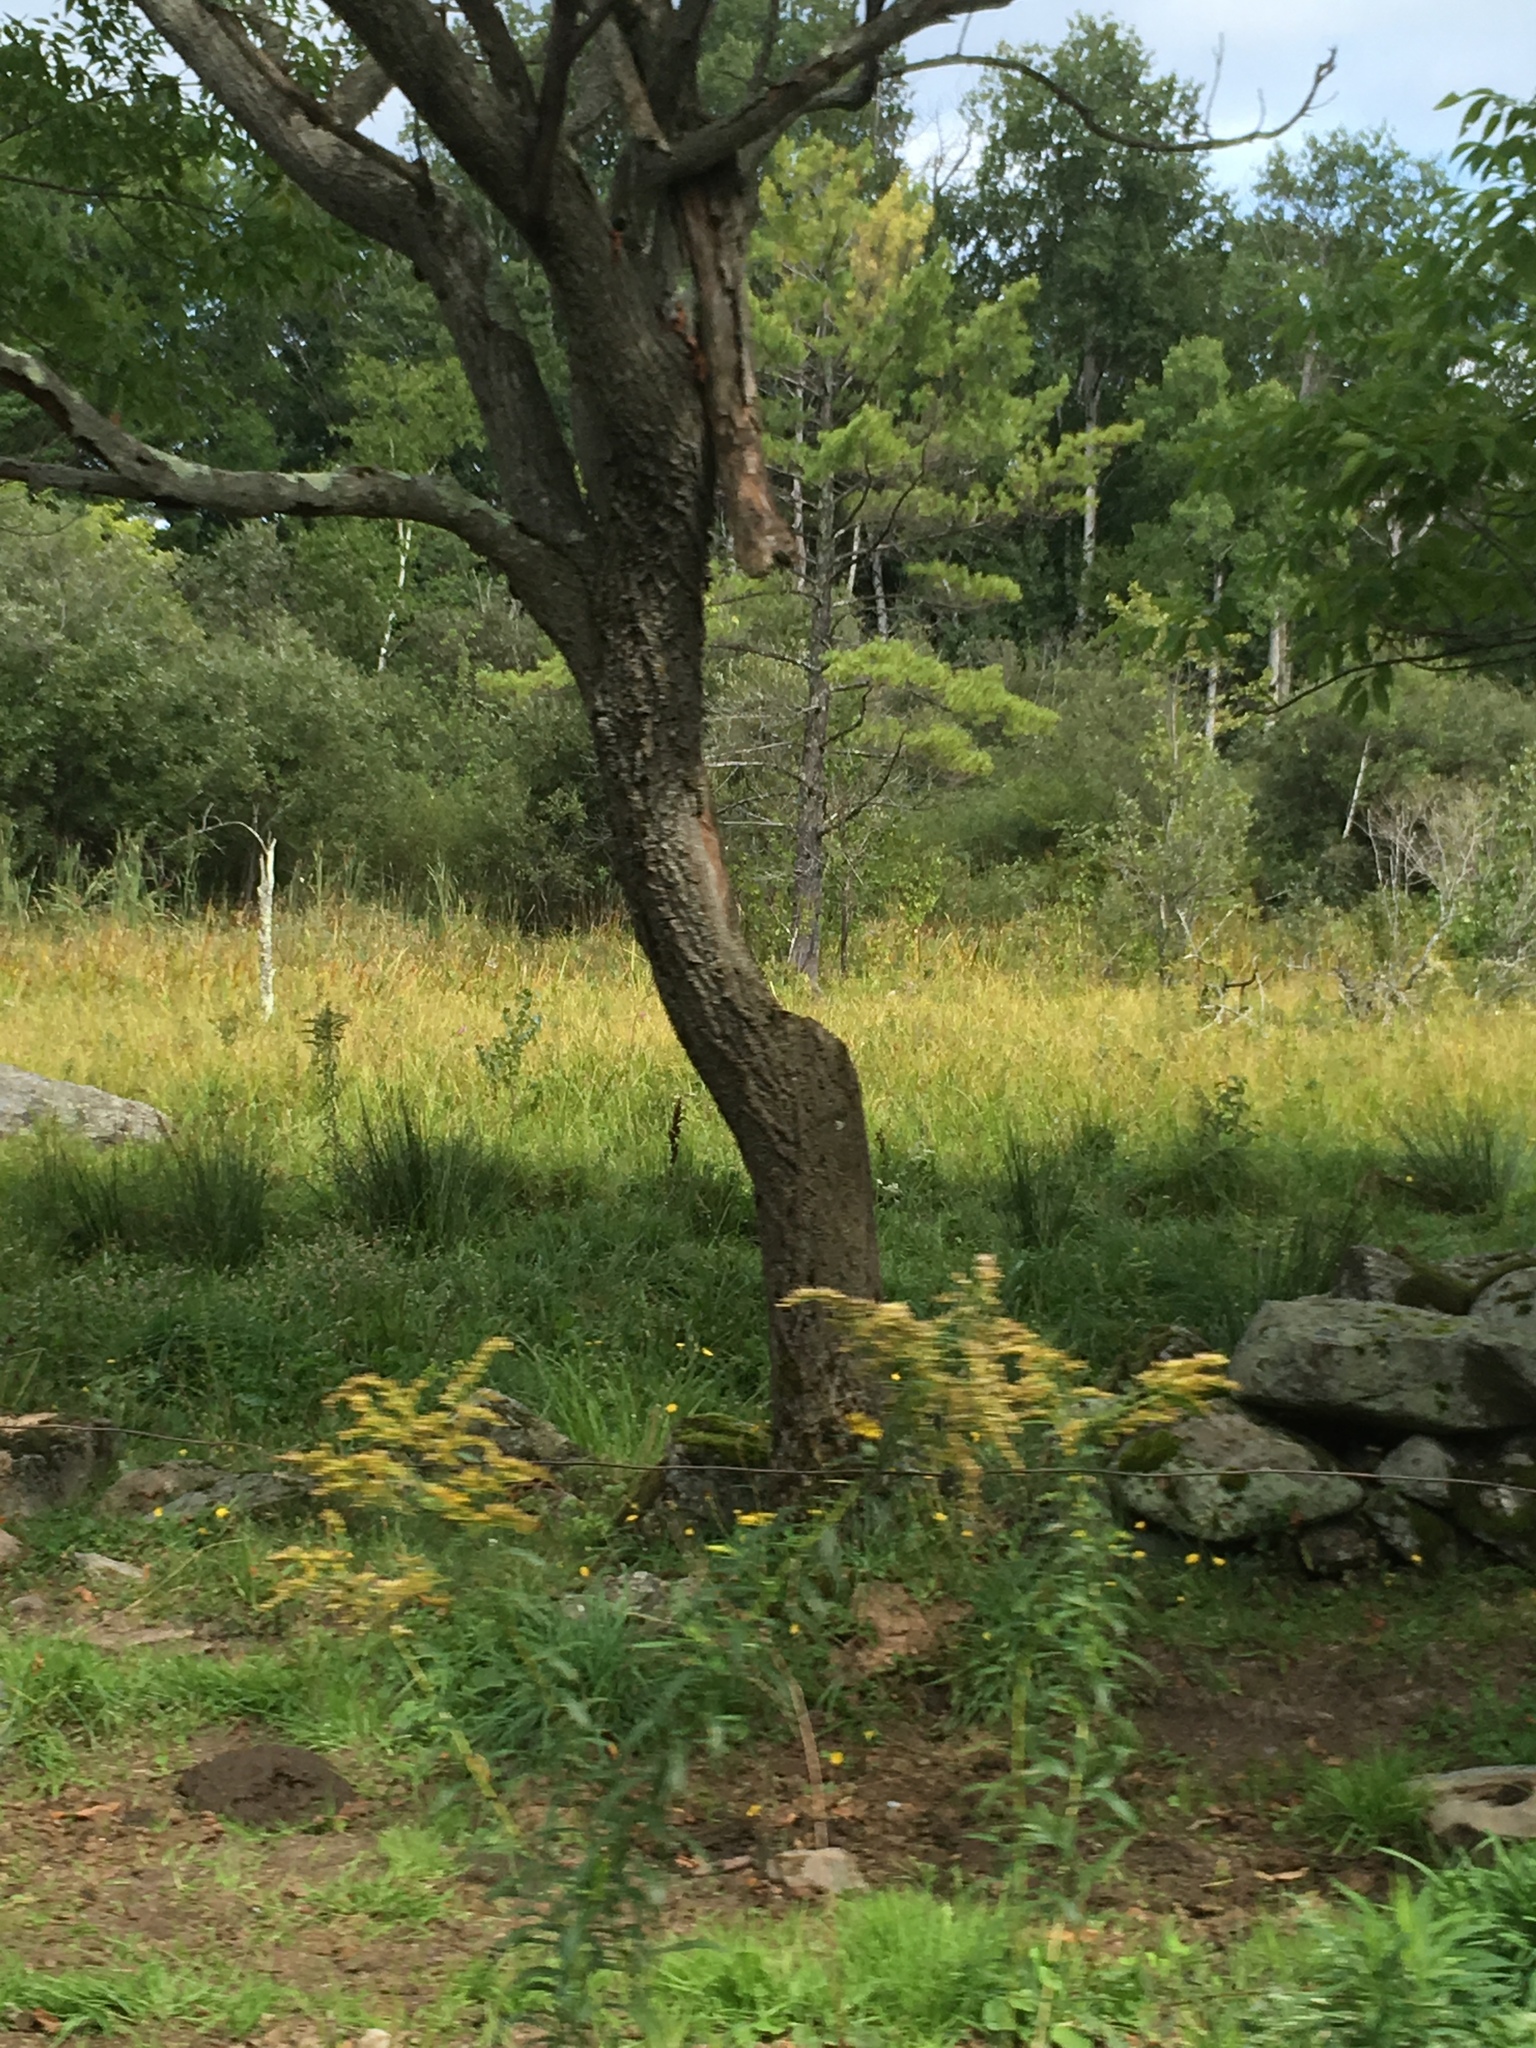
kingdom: Plantae
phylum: Tracheophyta
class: Pinopsida
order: Pinales
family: Pinaceae
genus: Pinus
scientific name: Pinus strobus
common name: Weymouth pine
